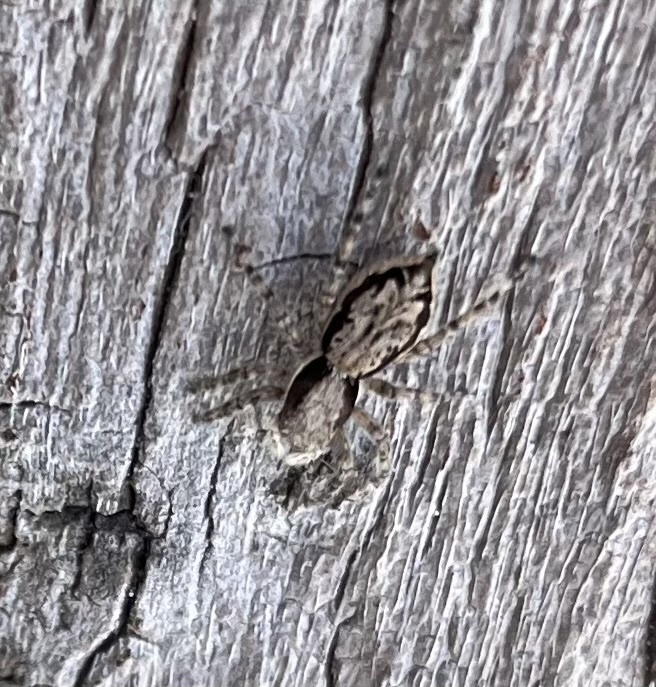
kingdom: Animalia
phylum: Arthropoda
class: Arachnida
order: Araneae
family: Salticidae
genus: Menemerus
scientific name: Menemerus bivittatus
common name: Gray wall jumper
